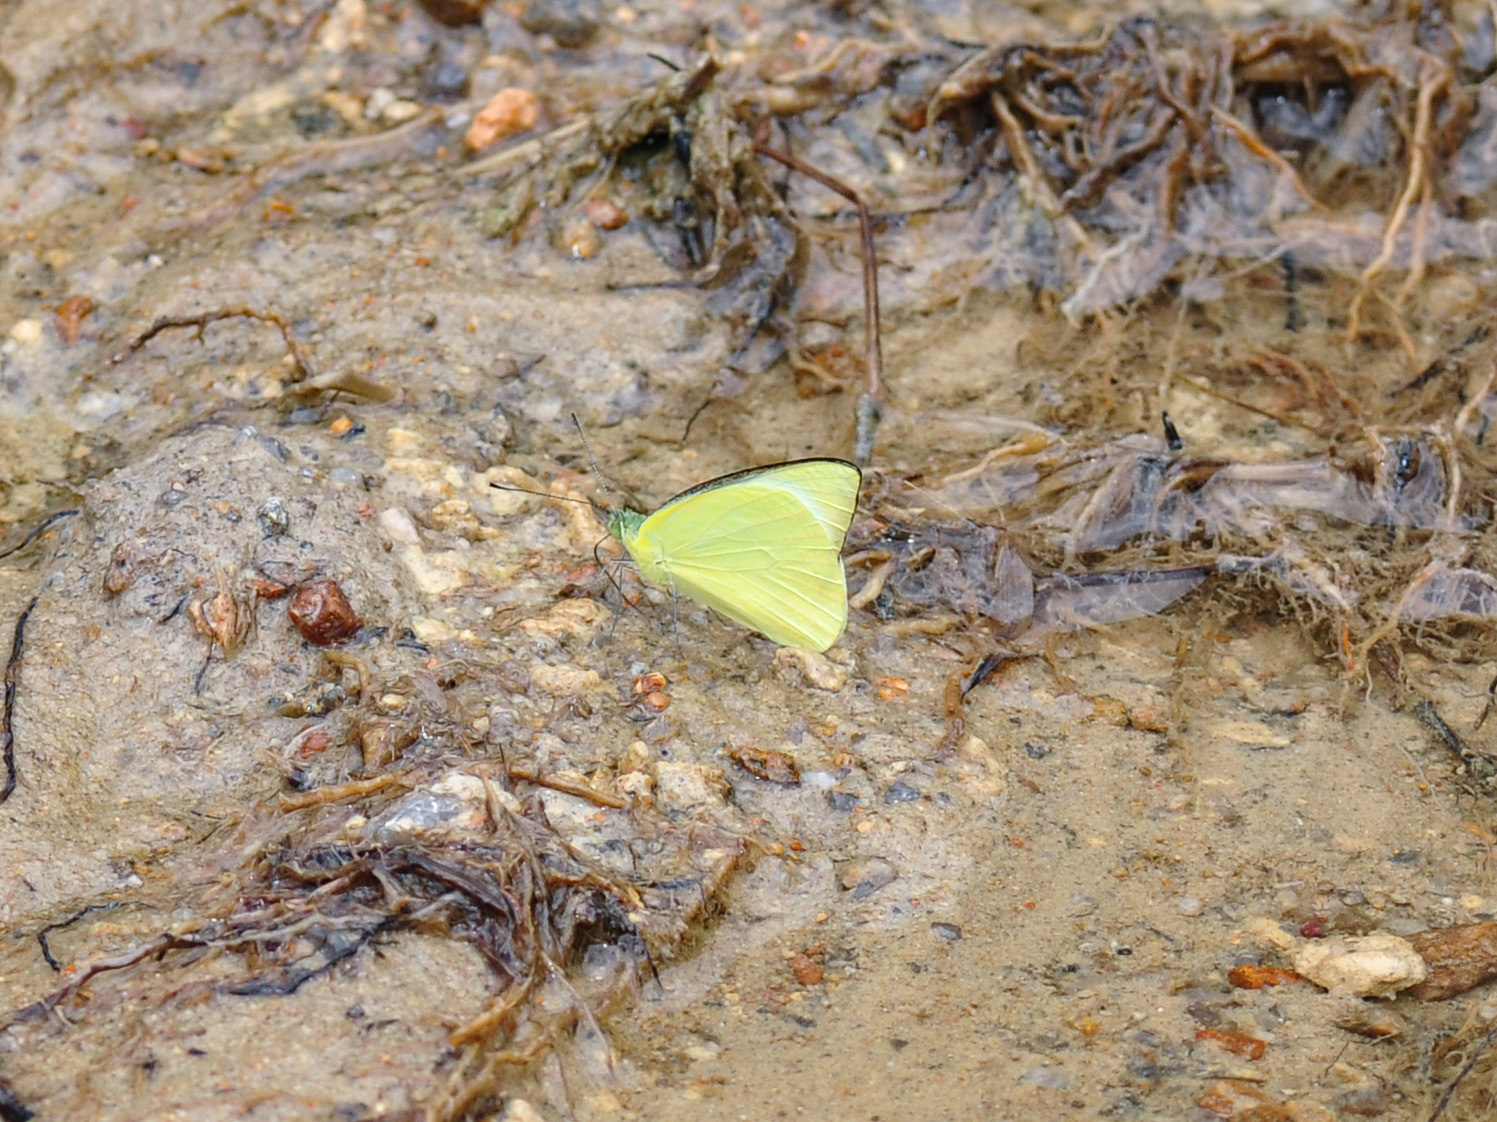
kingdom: Animalia
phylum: Arthropoda
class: Insecta
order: Lepidoptera
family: Pieridae
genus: Saletara
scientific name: Saletara panda
